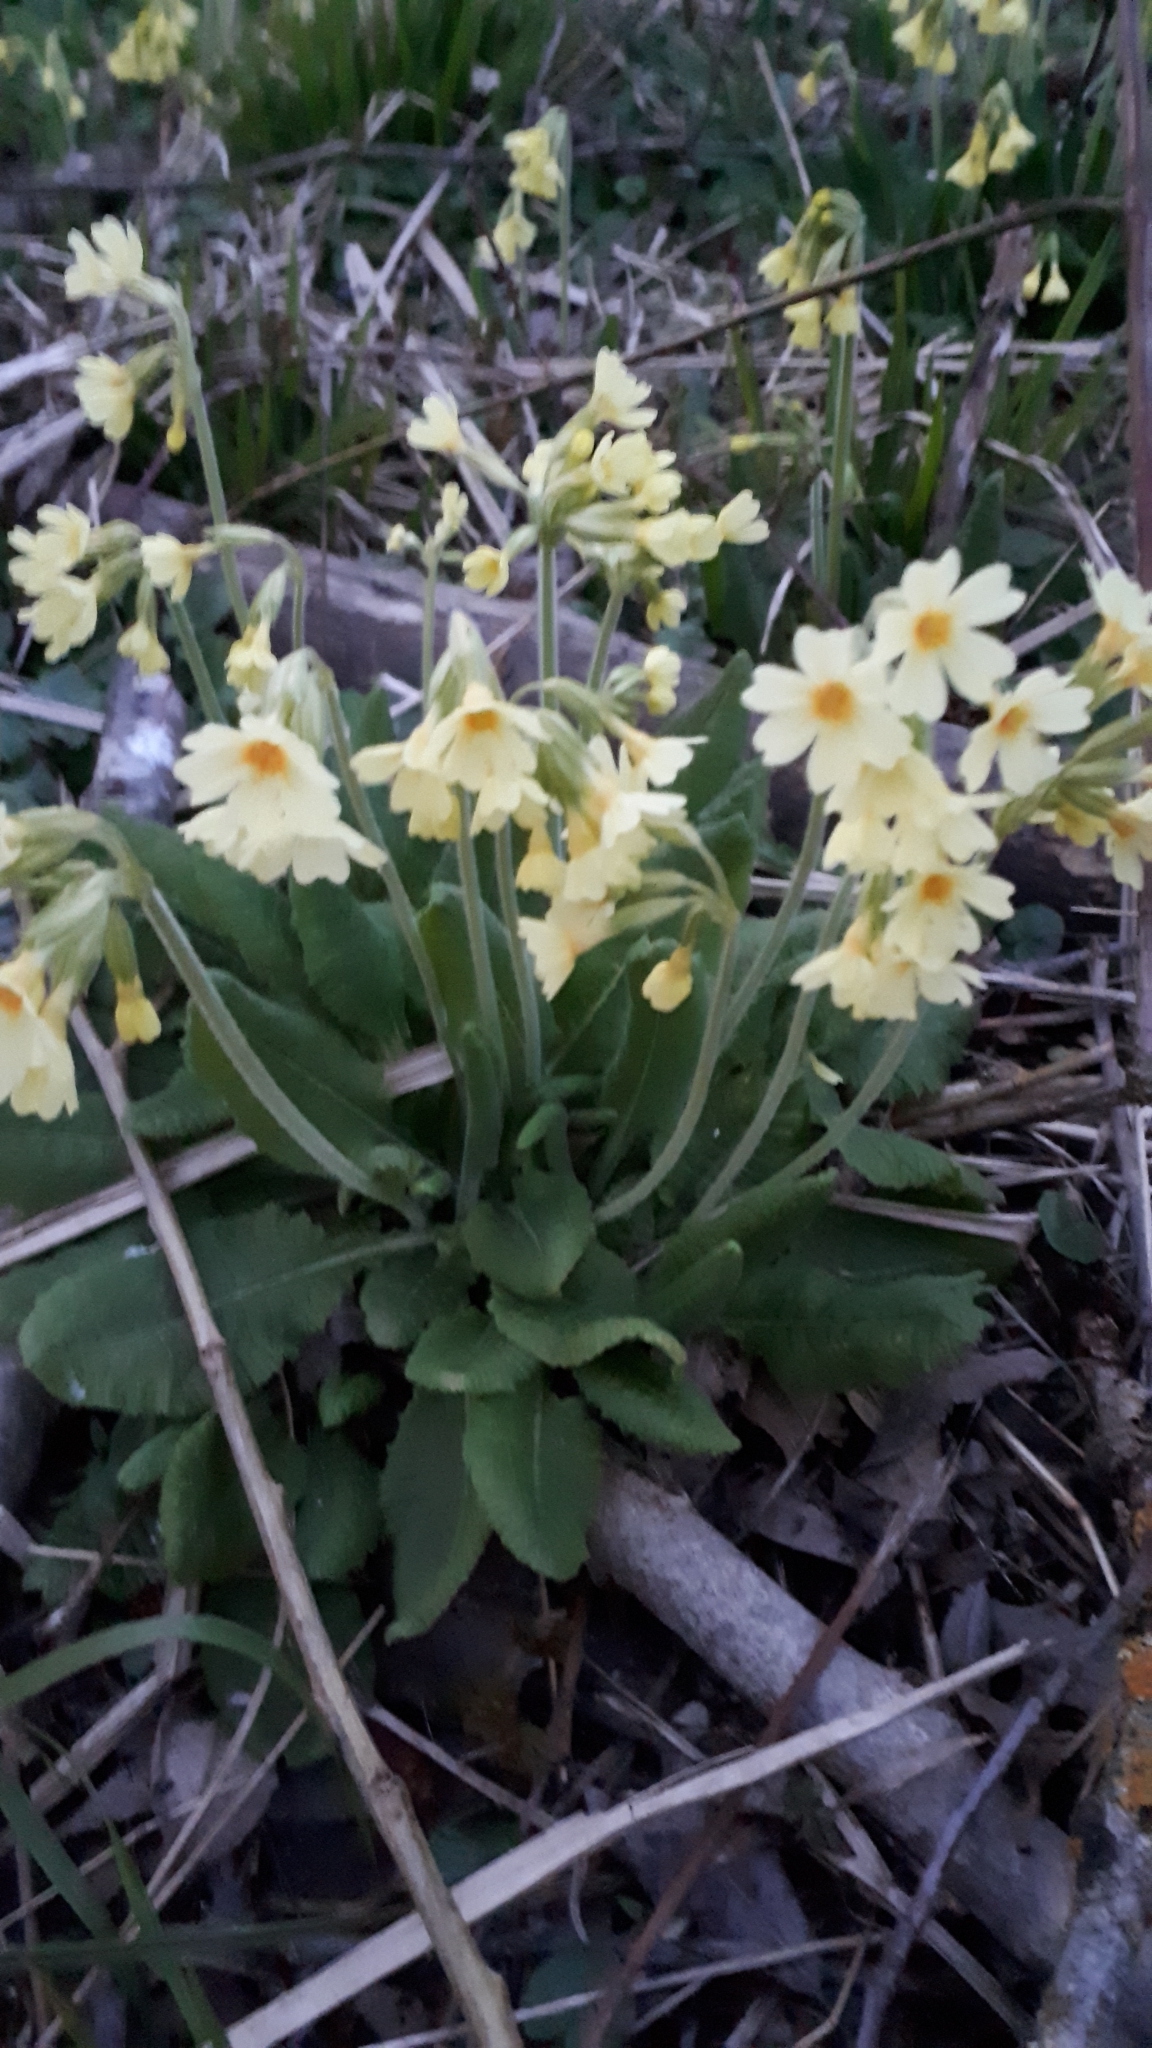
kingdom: Plantae
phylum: Tracheophyta
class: Magnoliopsida
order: Ericales
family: Primulaceae
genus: Primula
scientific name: Primula elatior
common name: Oxlip
